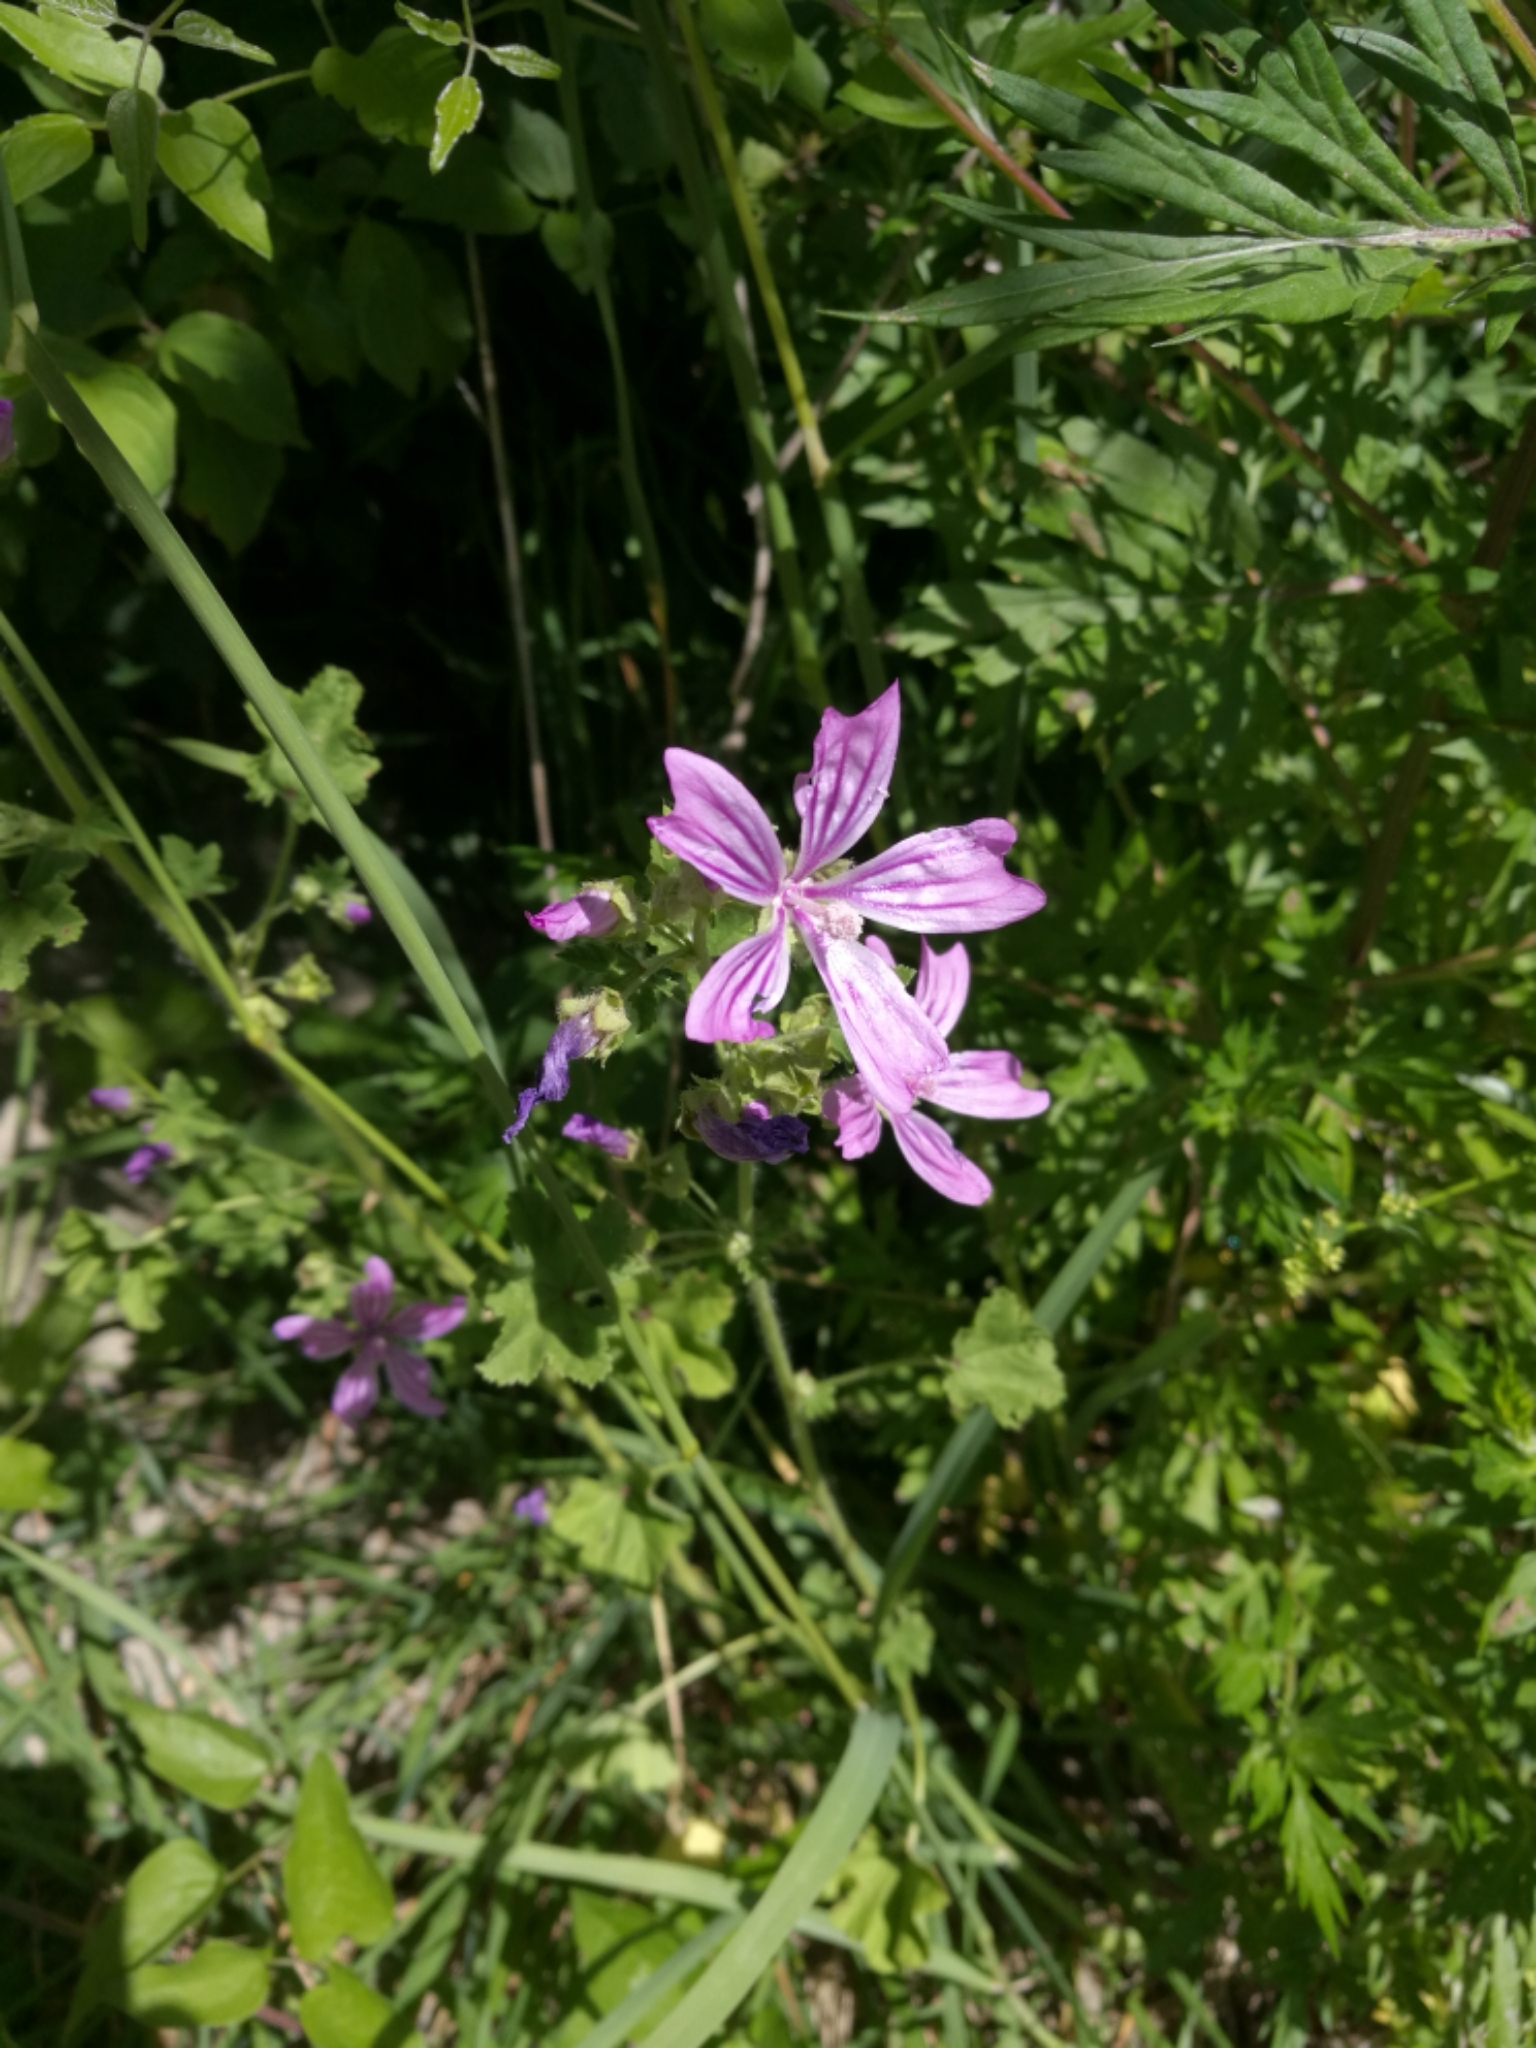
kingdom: Plantae
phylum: Tracheophyta
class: Magnoliopsida
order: Malvales
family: Malvaceae
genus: Malva
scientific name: Malva sylvestris
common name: Common mallow
